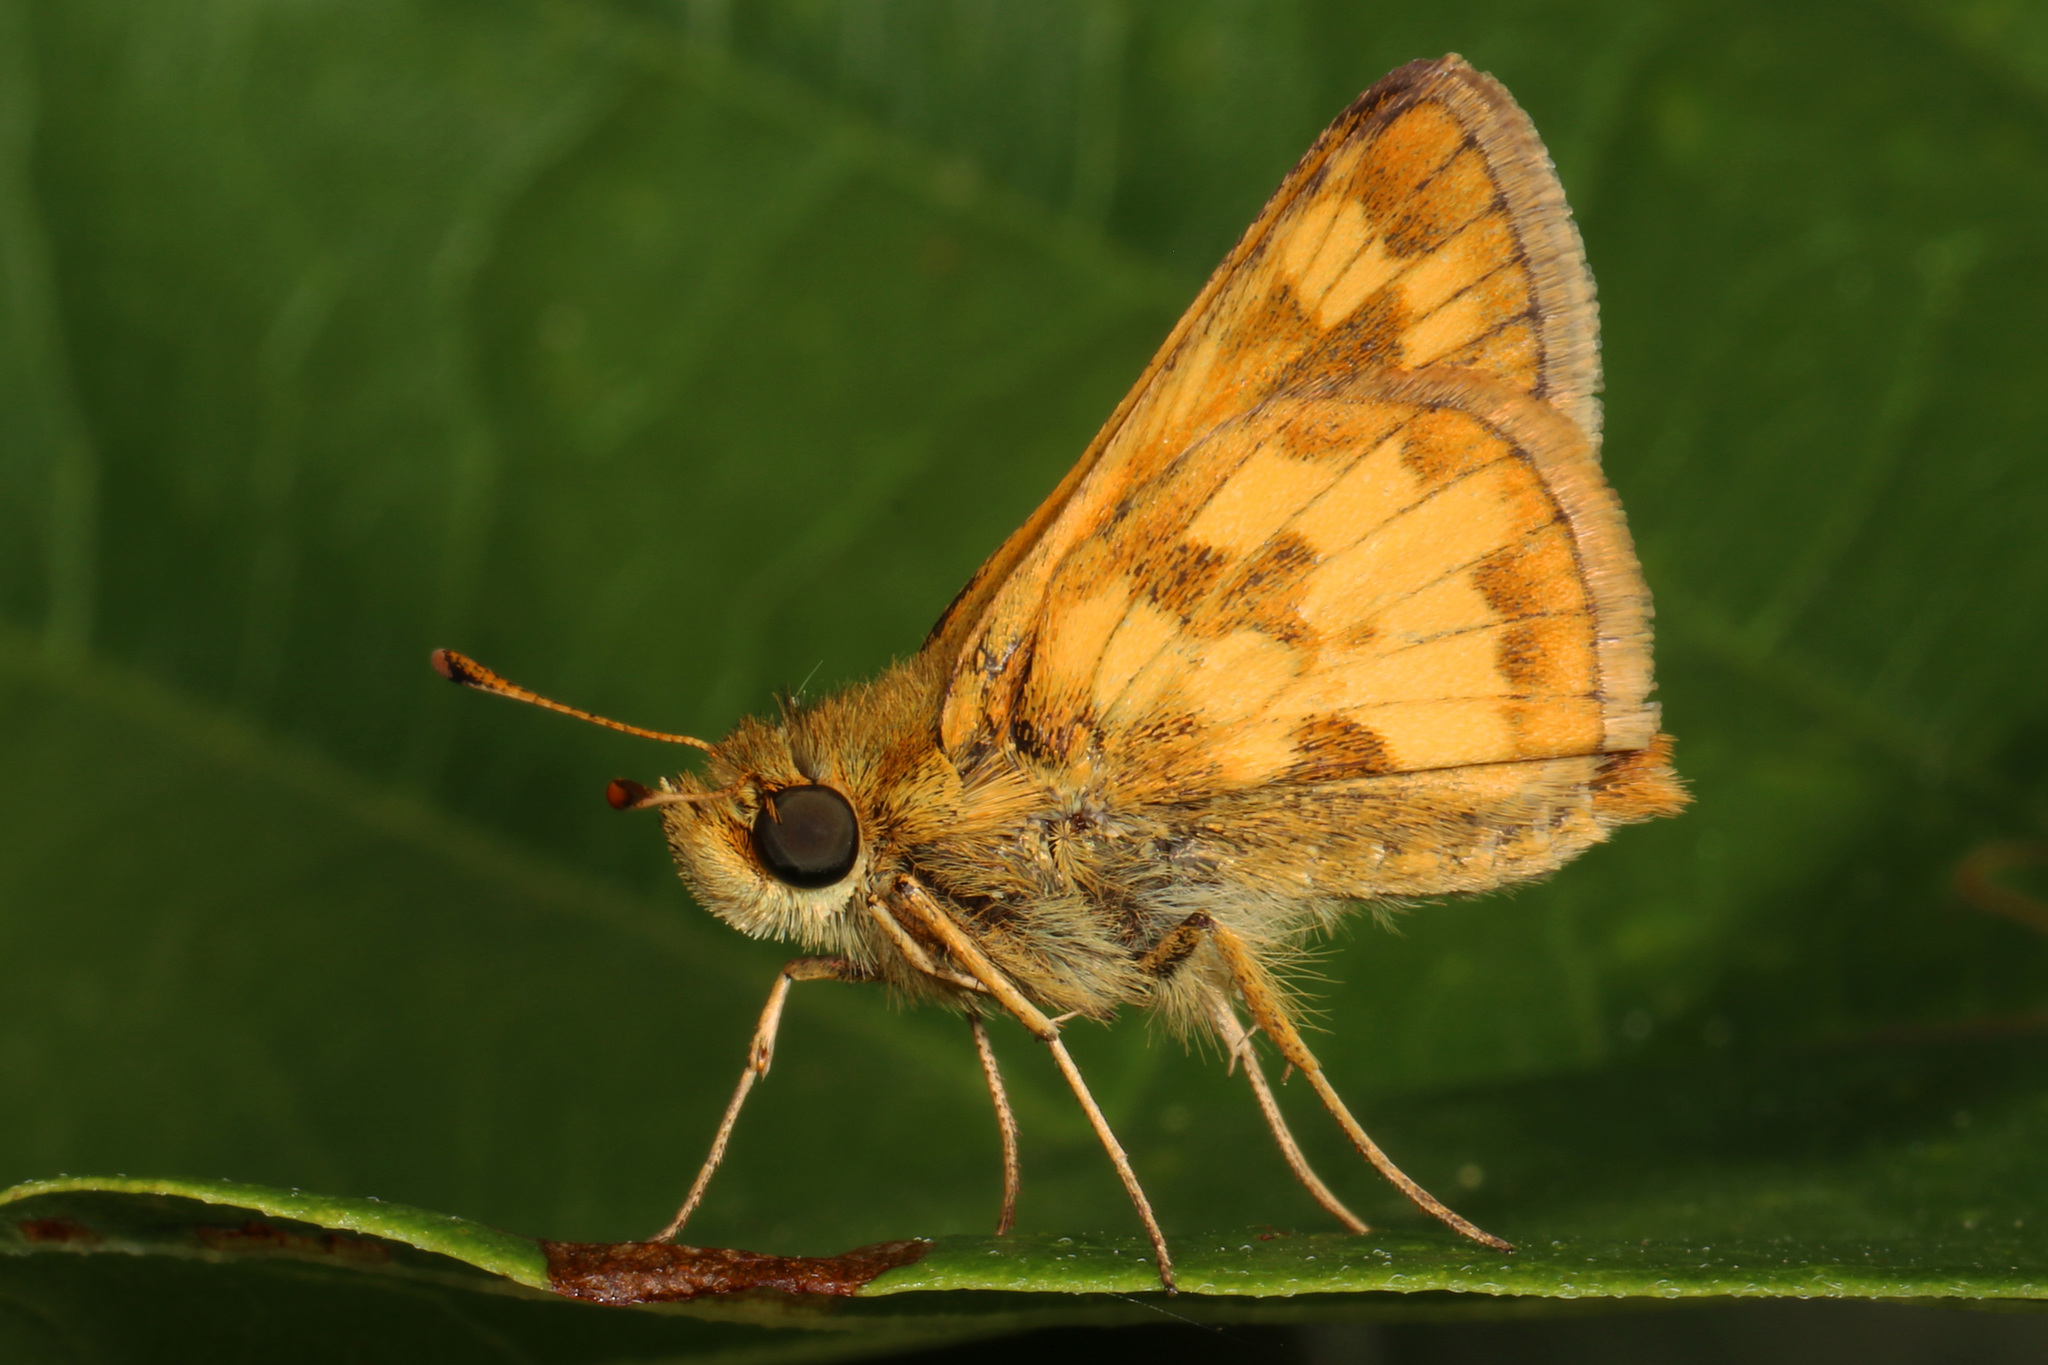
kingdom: Animalia
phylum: Arthropoda
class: Insecta
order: Lepidoptera
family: Hesperiidae
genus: Polites
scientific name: Polites coras
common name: Peck's skipper
